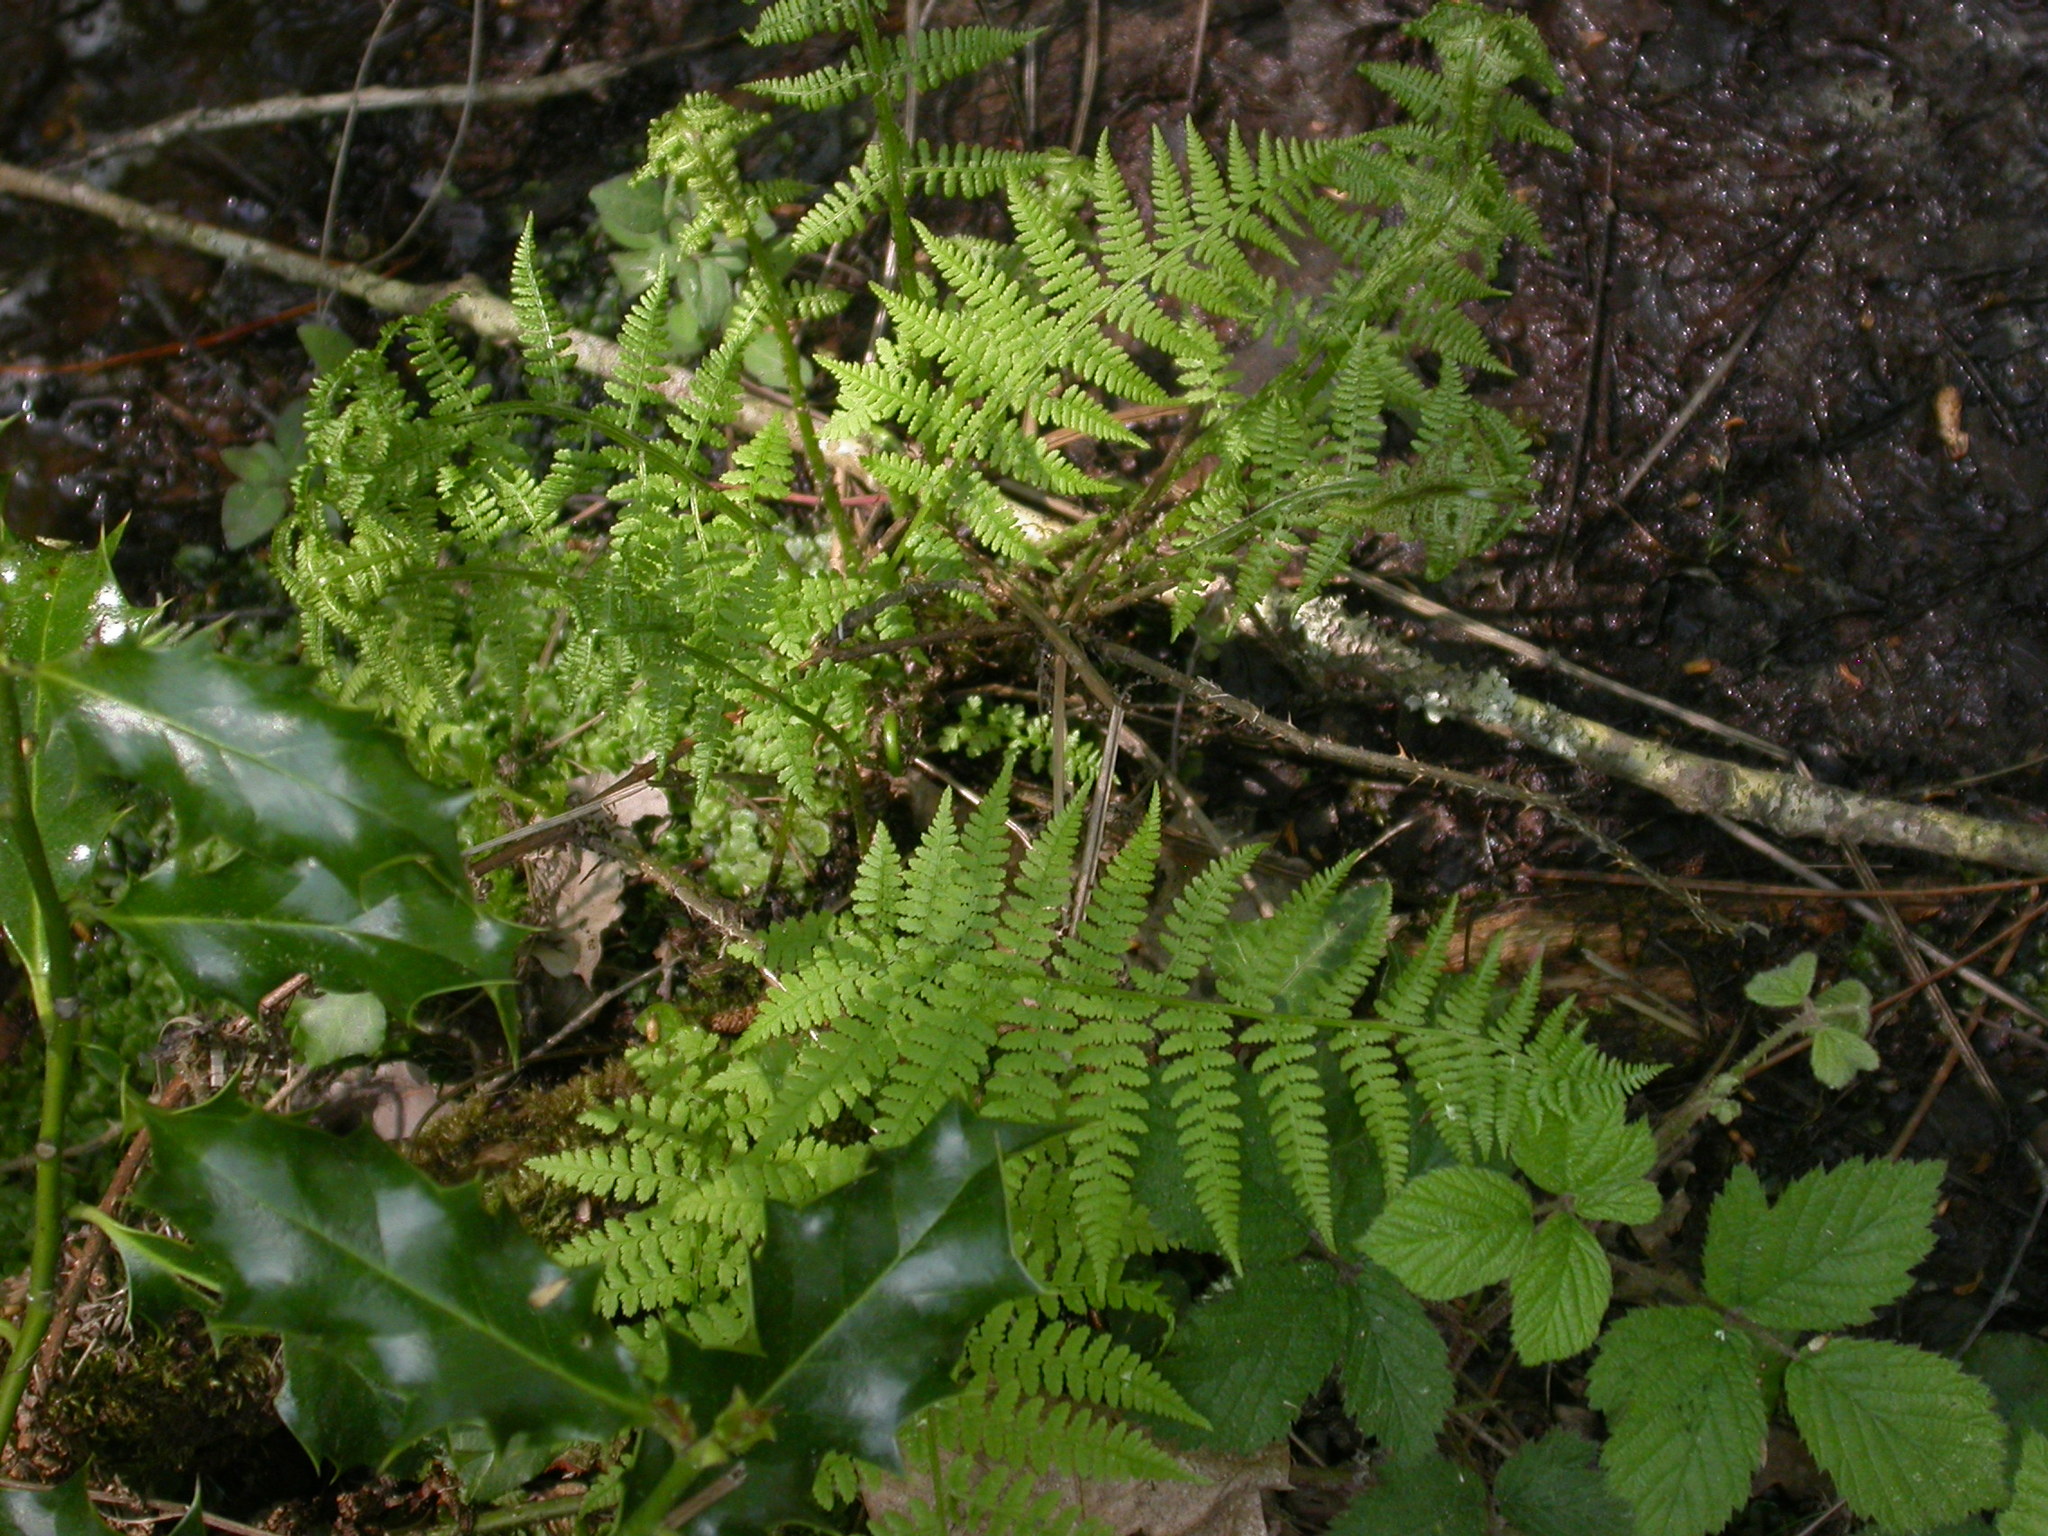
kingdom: Plantae
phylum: Tracheophyta
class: Polypodiopsida
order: Polypodiales
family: Athyriaceae
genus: Athyrium
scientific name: Athyrium filix-femina
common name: Lady fern
